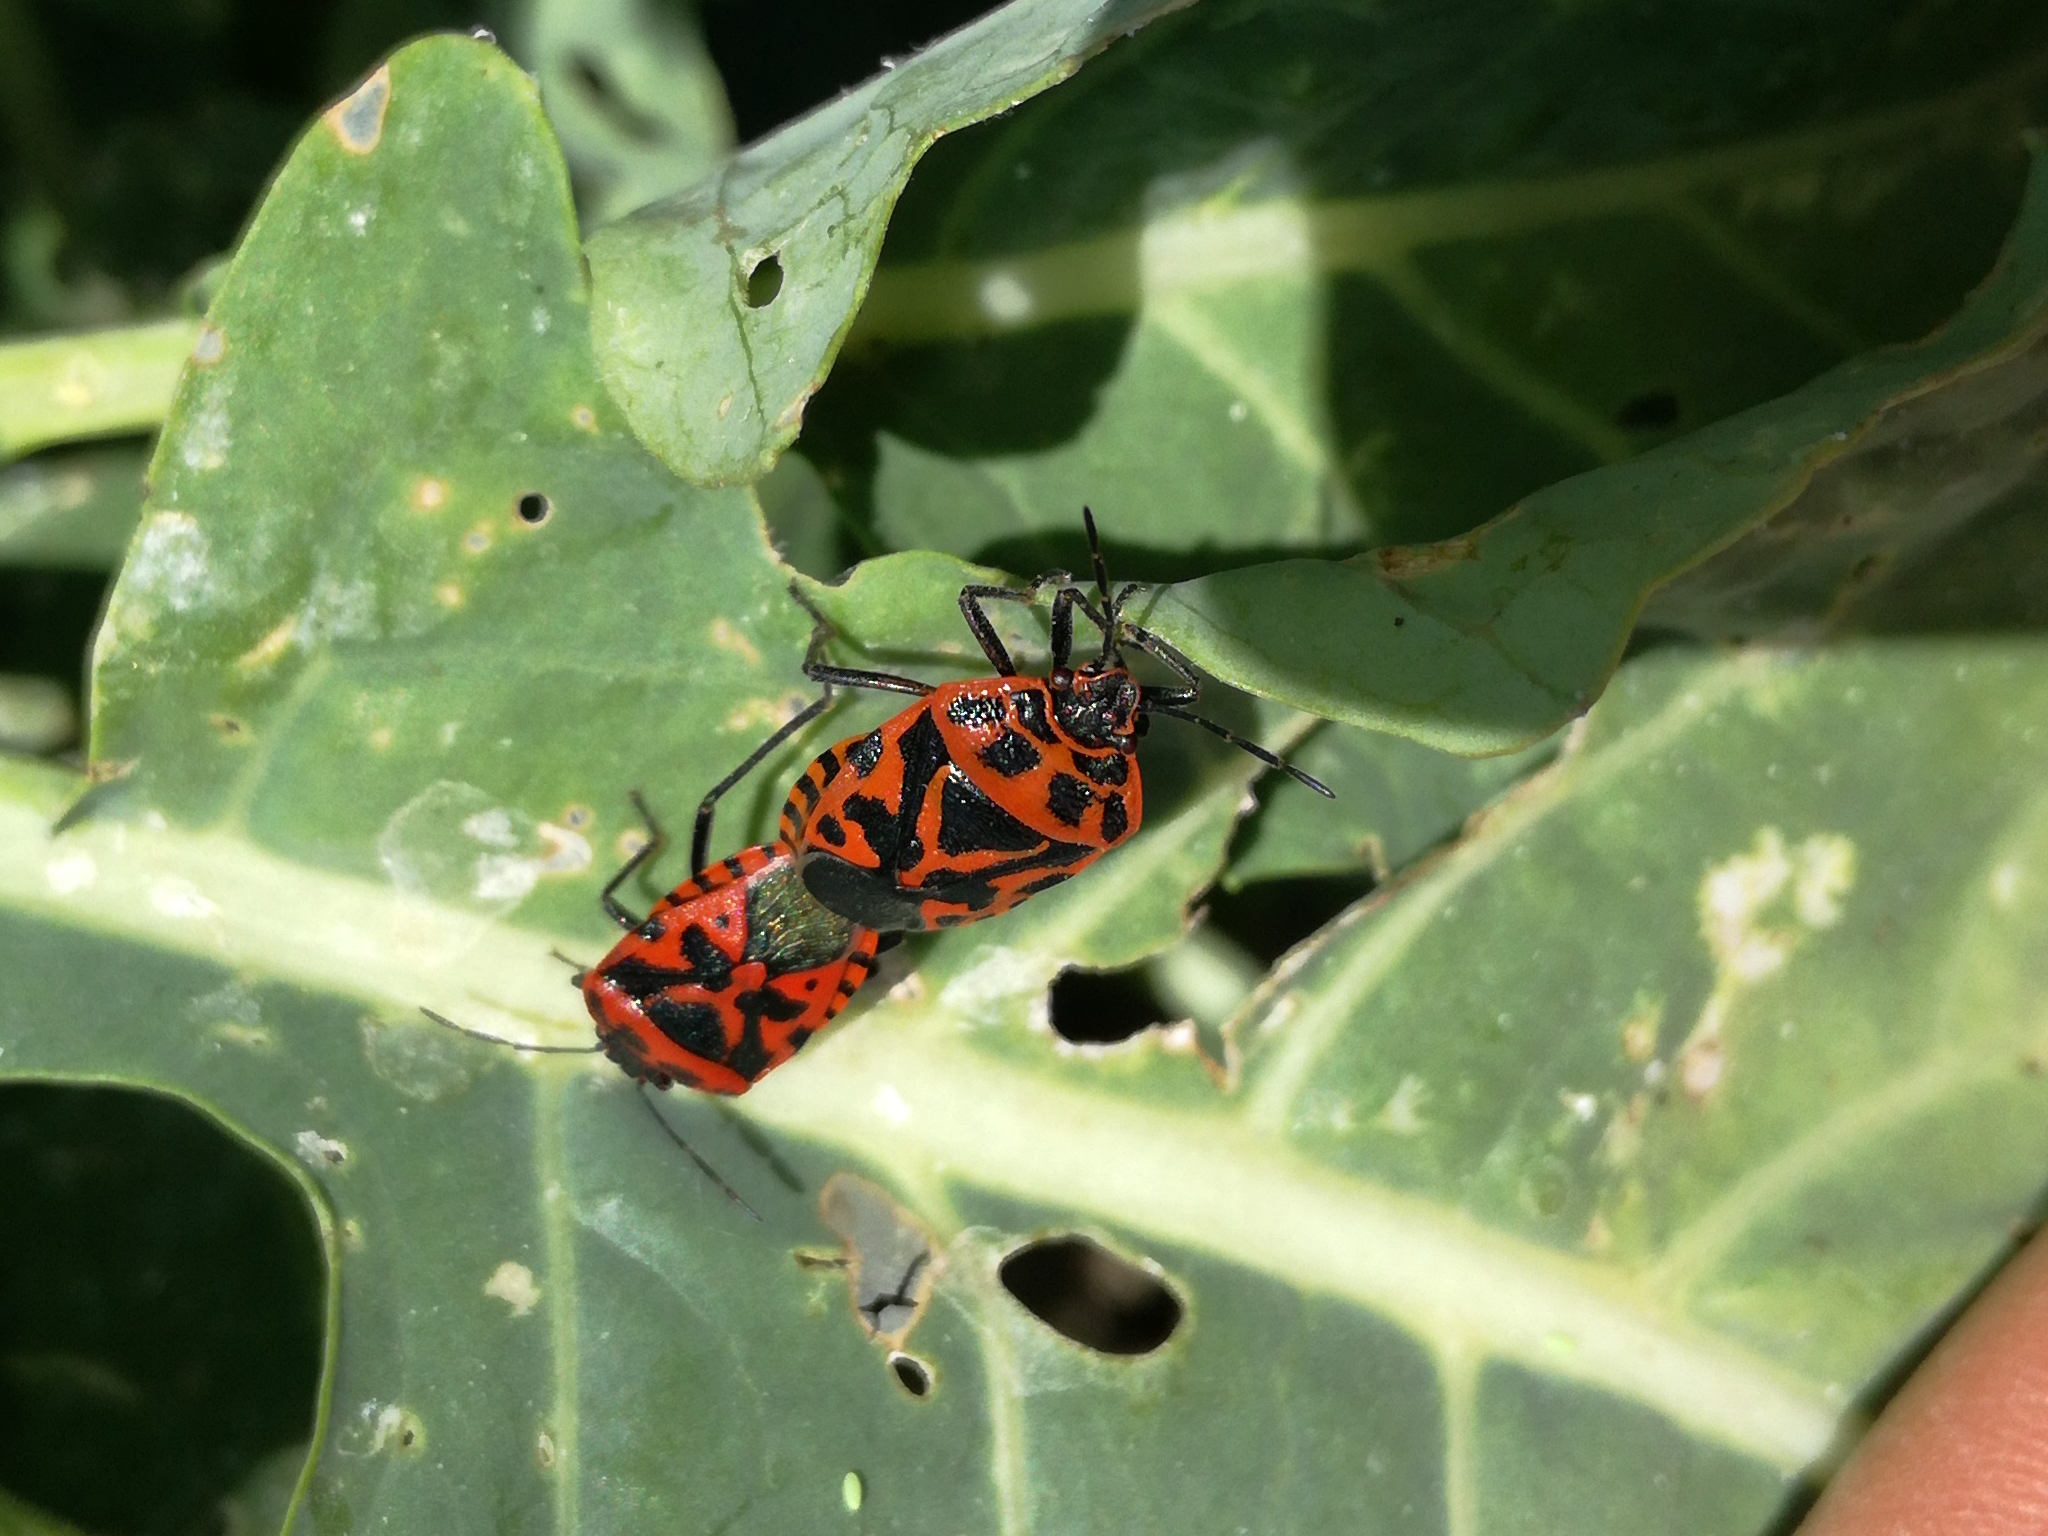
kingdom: Animalia
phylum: Arthropoda
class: Insecta
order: Hemiptera
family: Pentatomidae
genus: Eurydema
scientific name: Eurydema ventralis
